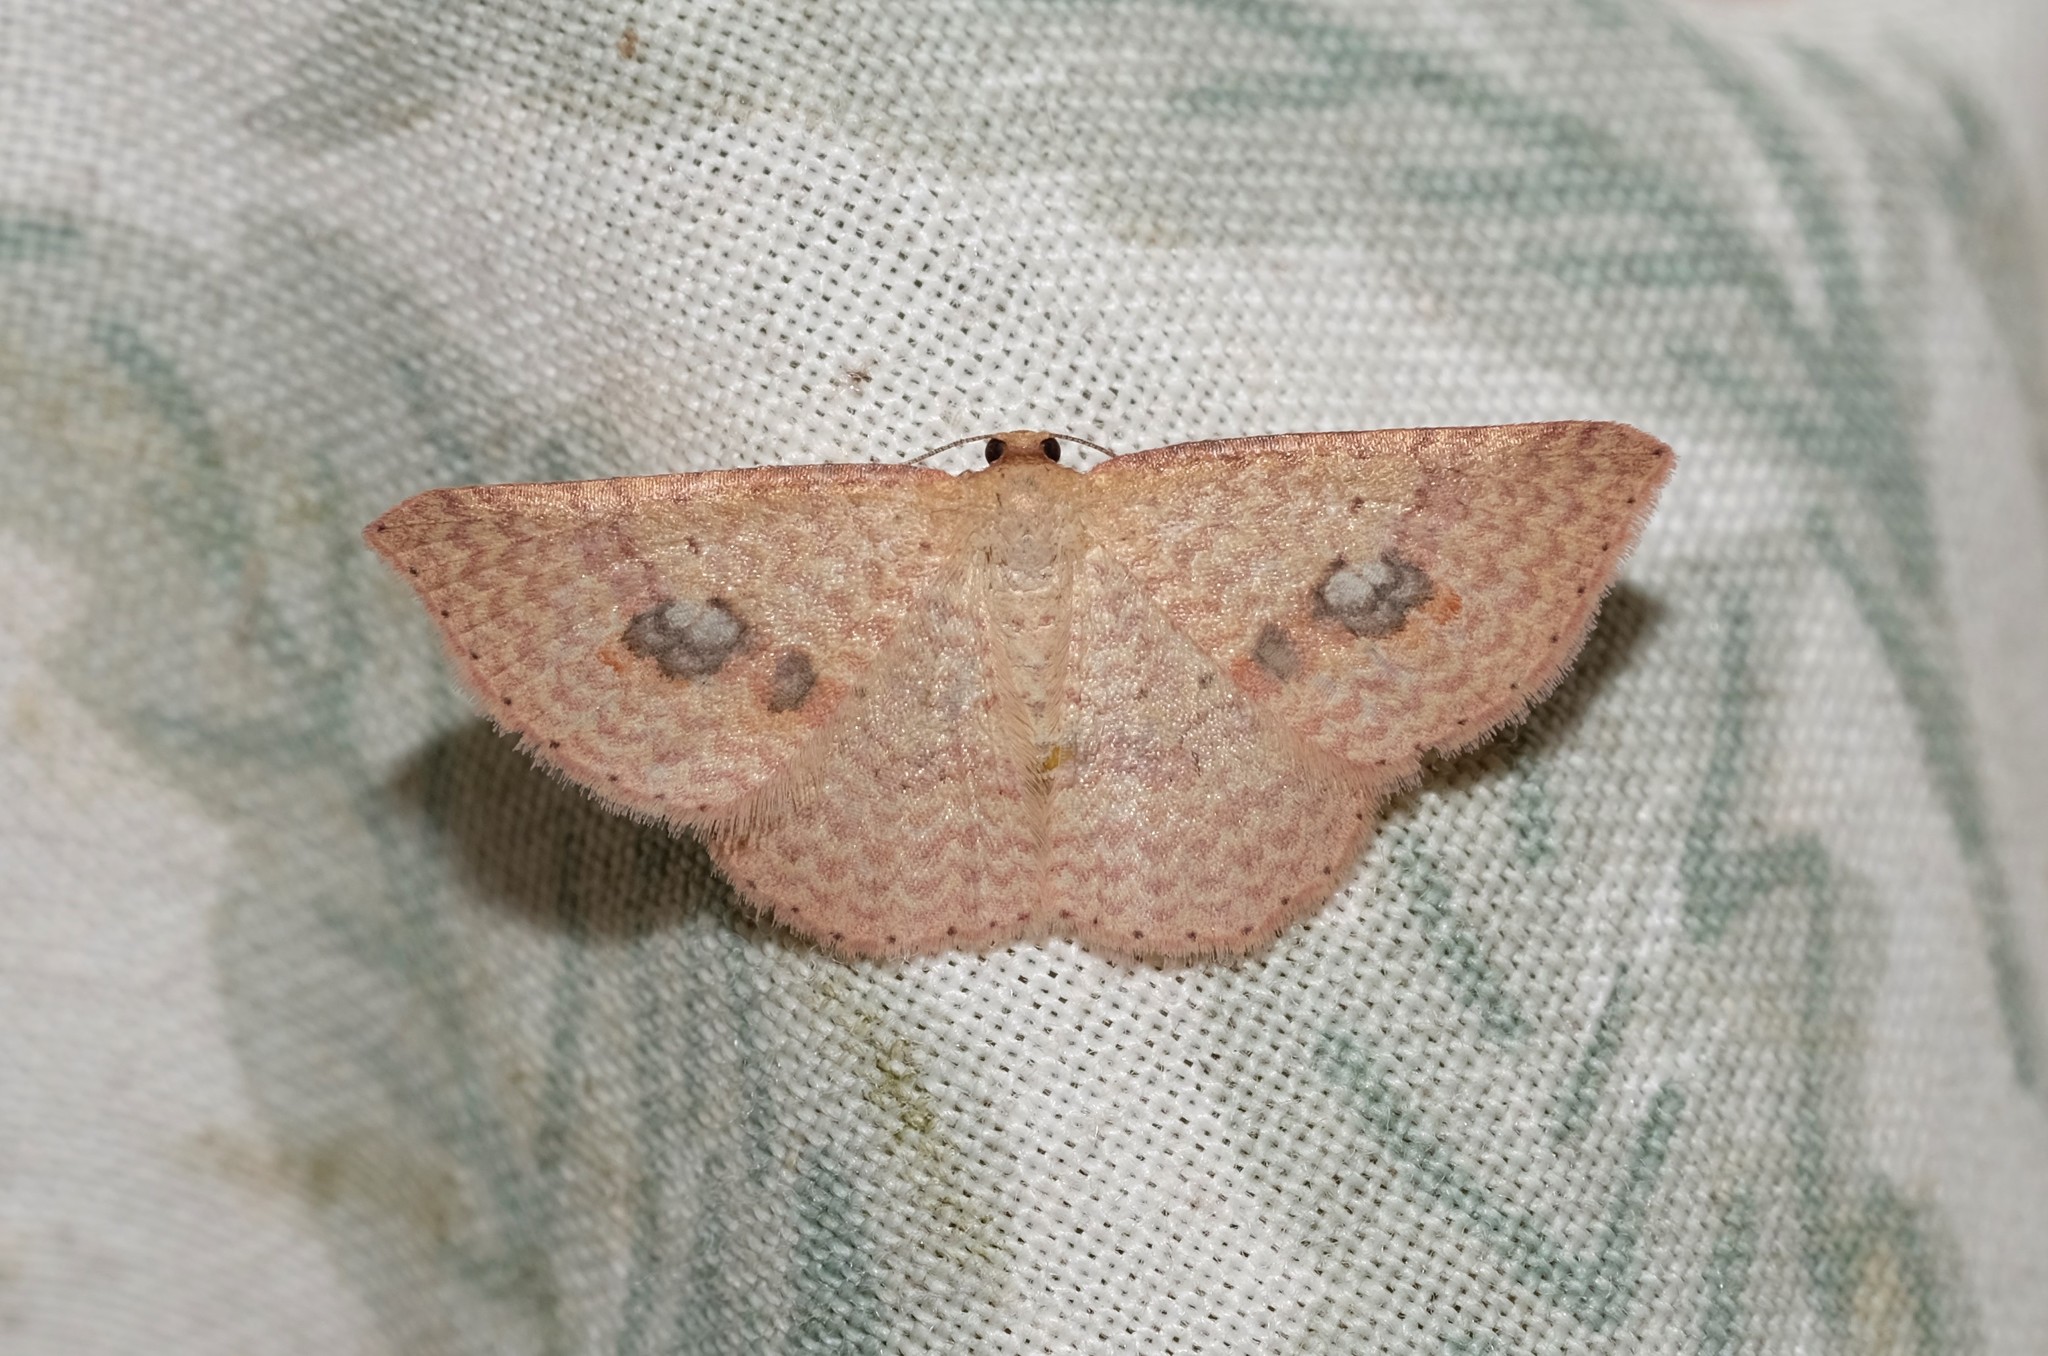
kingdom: Animalia
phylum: Arthropoda
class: Insecta
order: Lepidoptera
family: Geometridae
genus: Epicyme
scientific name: Epicyme rubropunctaria
